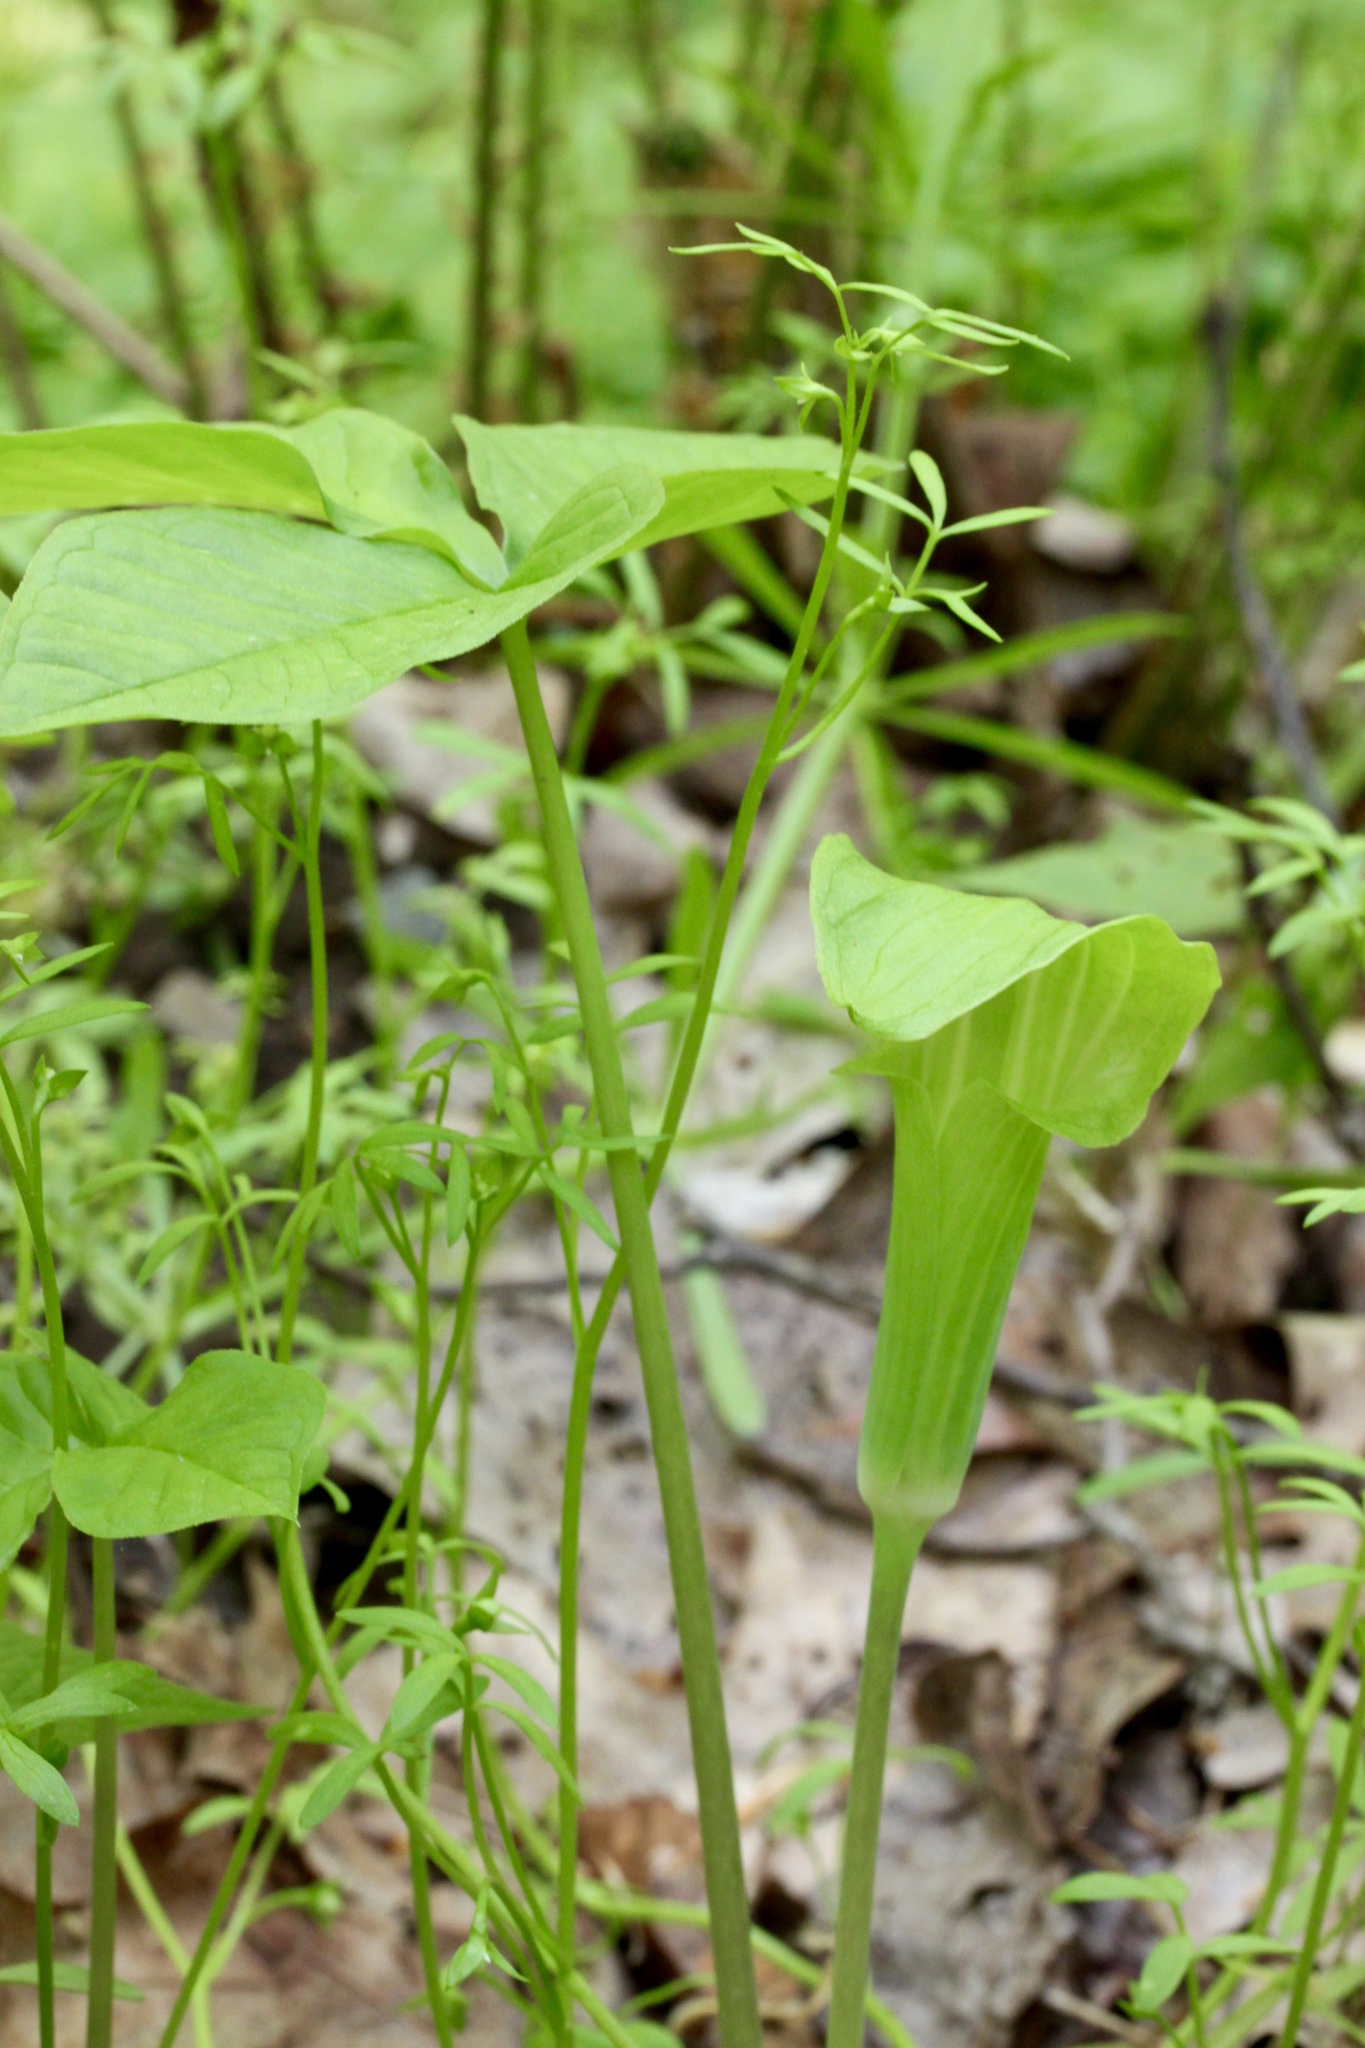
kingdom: Plantae
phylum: Tracheophyta
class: Liliopsida
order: Alismatales
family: Araceae
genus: Arisaema
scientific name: Arisaema triphyllum
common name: Jack-in-the-pulpit
